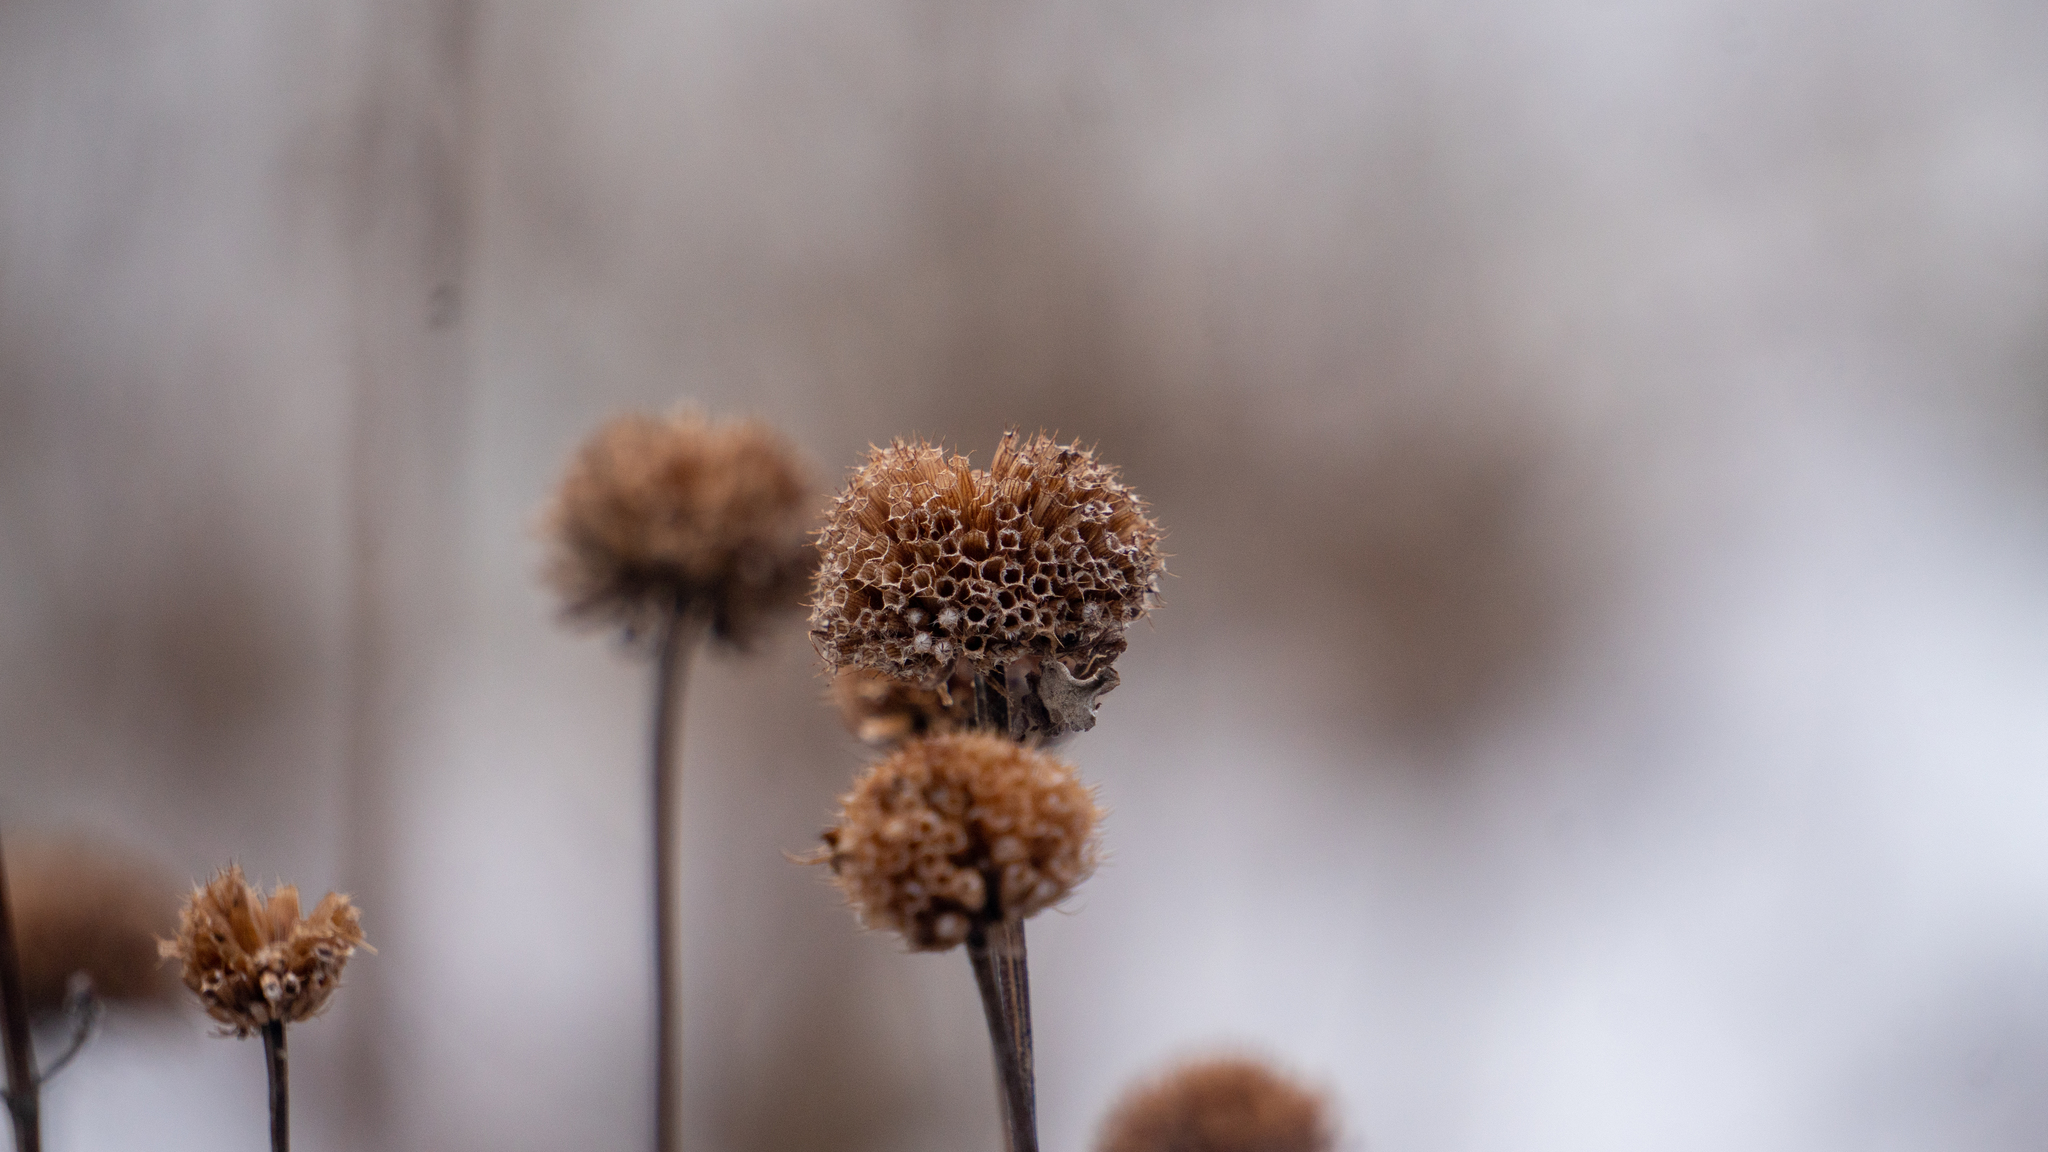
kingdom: Plantae
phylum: Tracheophyta
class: Magnoliopsida
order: Lamiales
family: Lamiaceae
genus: Monarda
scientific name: Monarda fistulosa
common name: Purple beebalm
